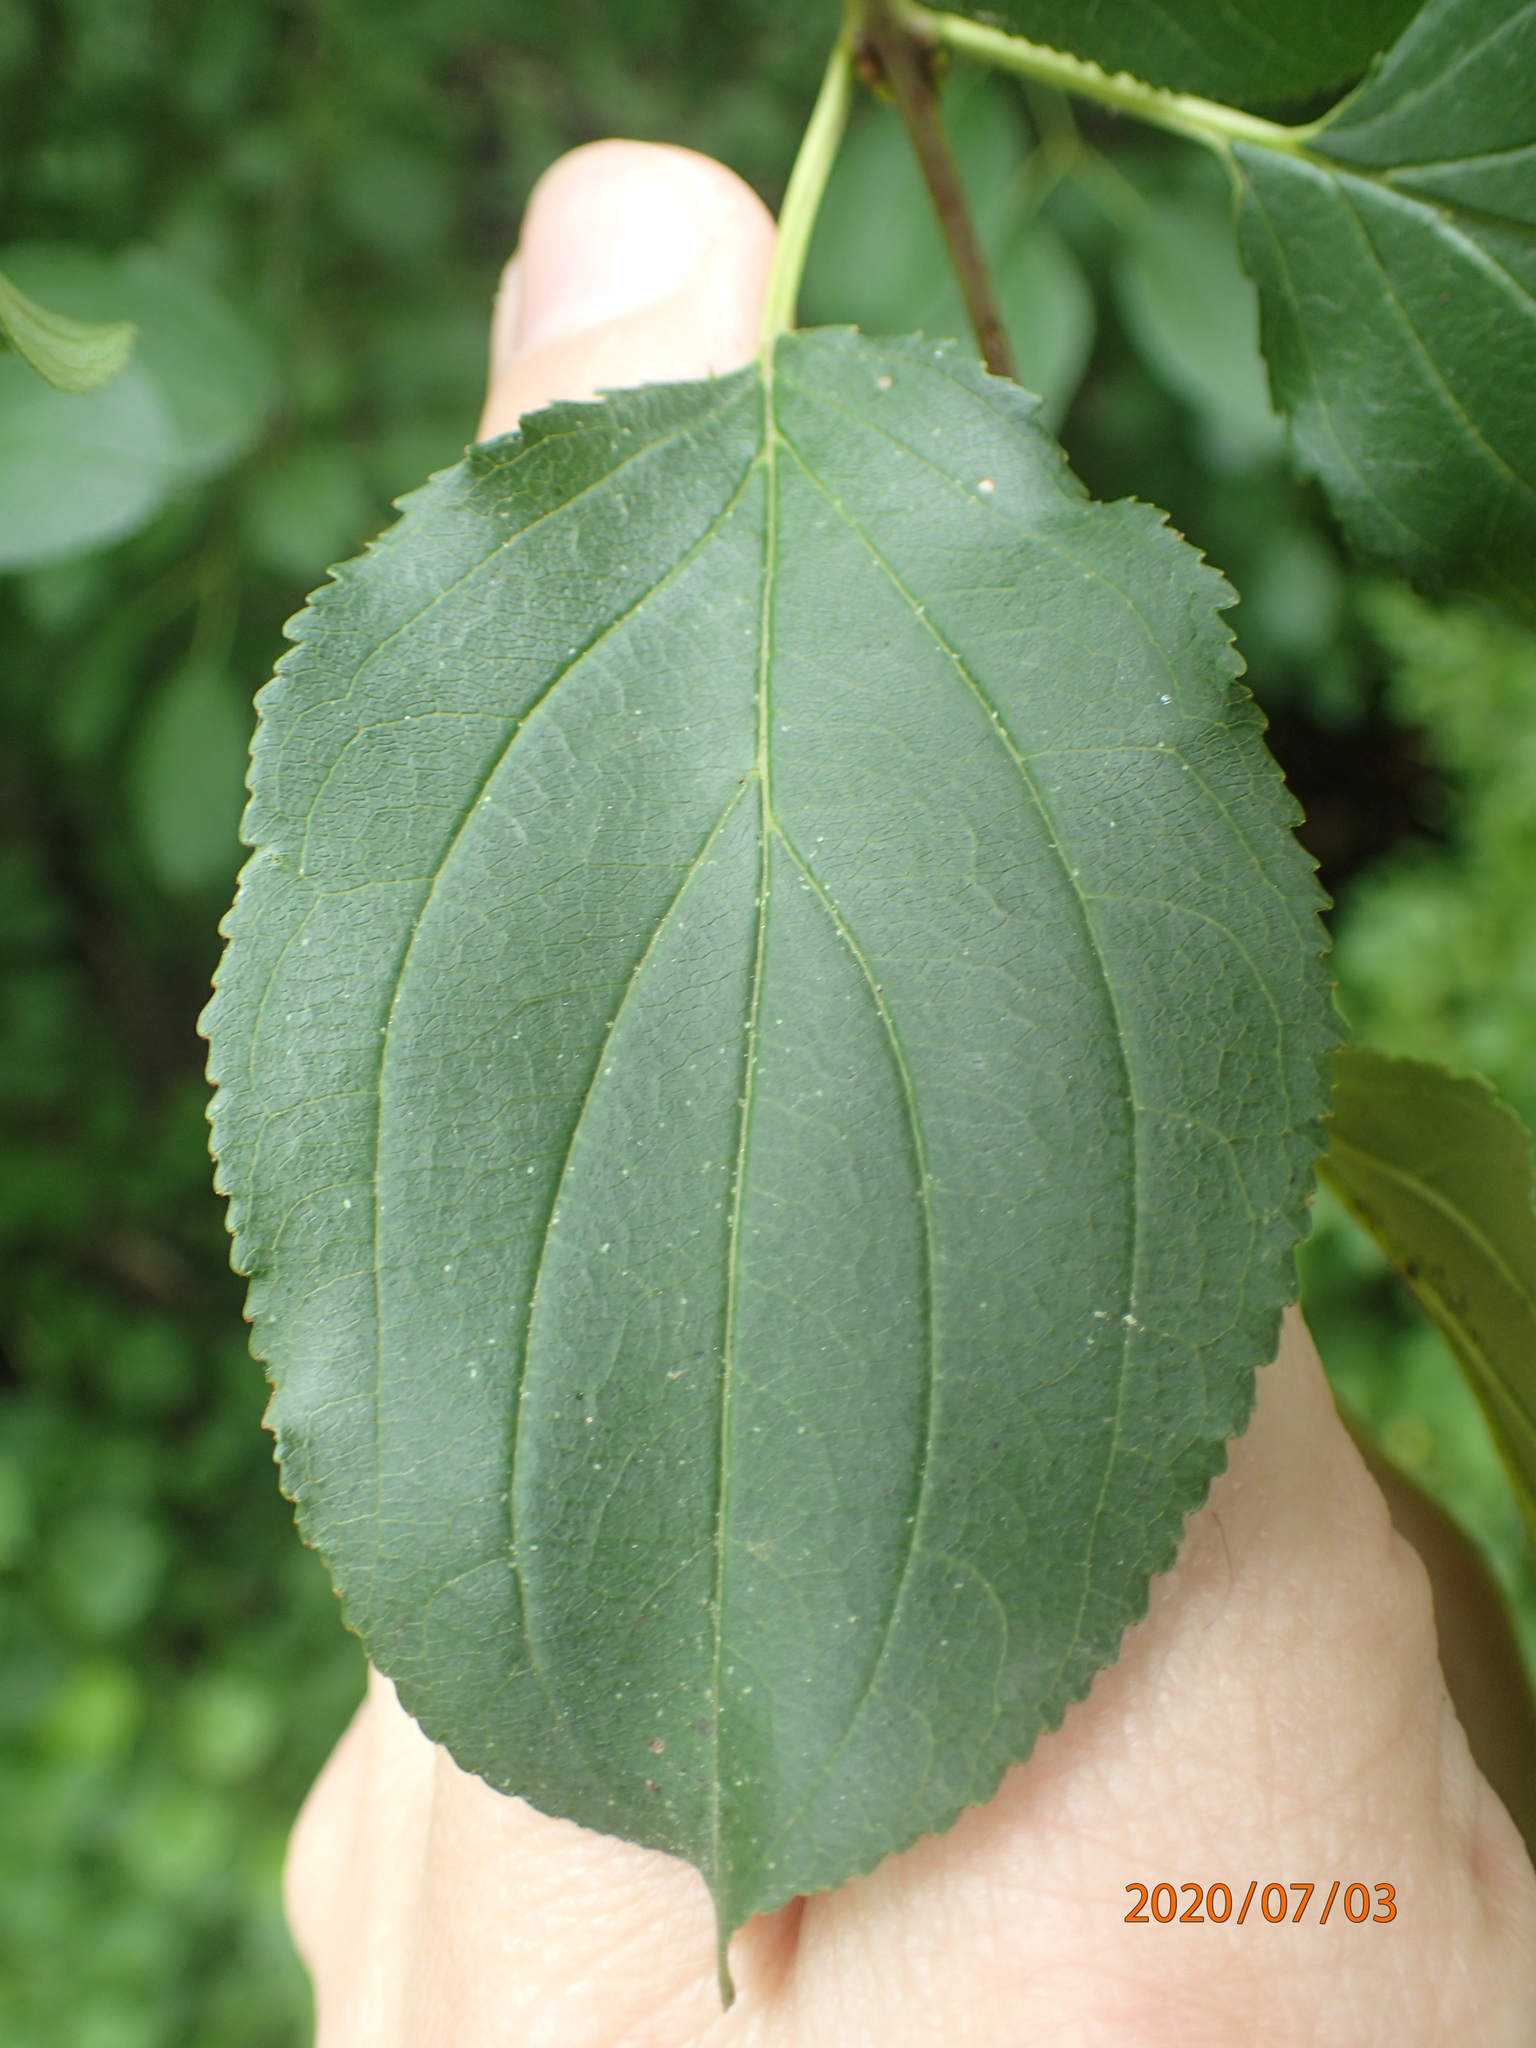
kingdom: Plantae
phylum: Tracheophyta
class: Magnoliopsida
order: Rosales
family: Rhamnaceae
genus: Rhamnus
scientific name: Rhamnus cathartica
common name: Common buckthorn
